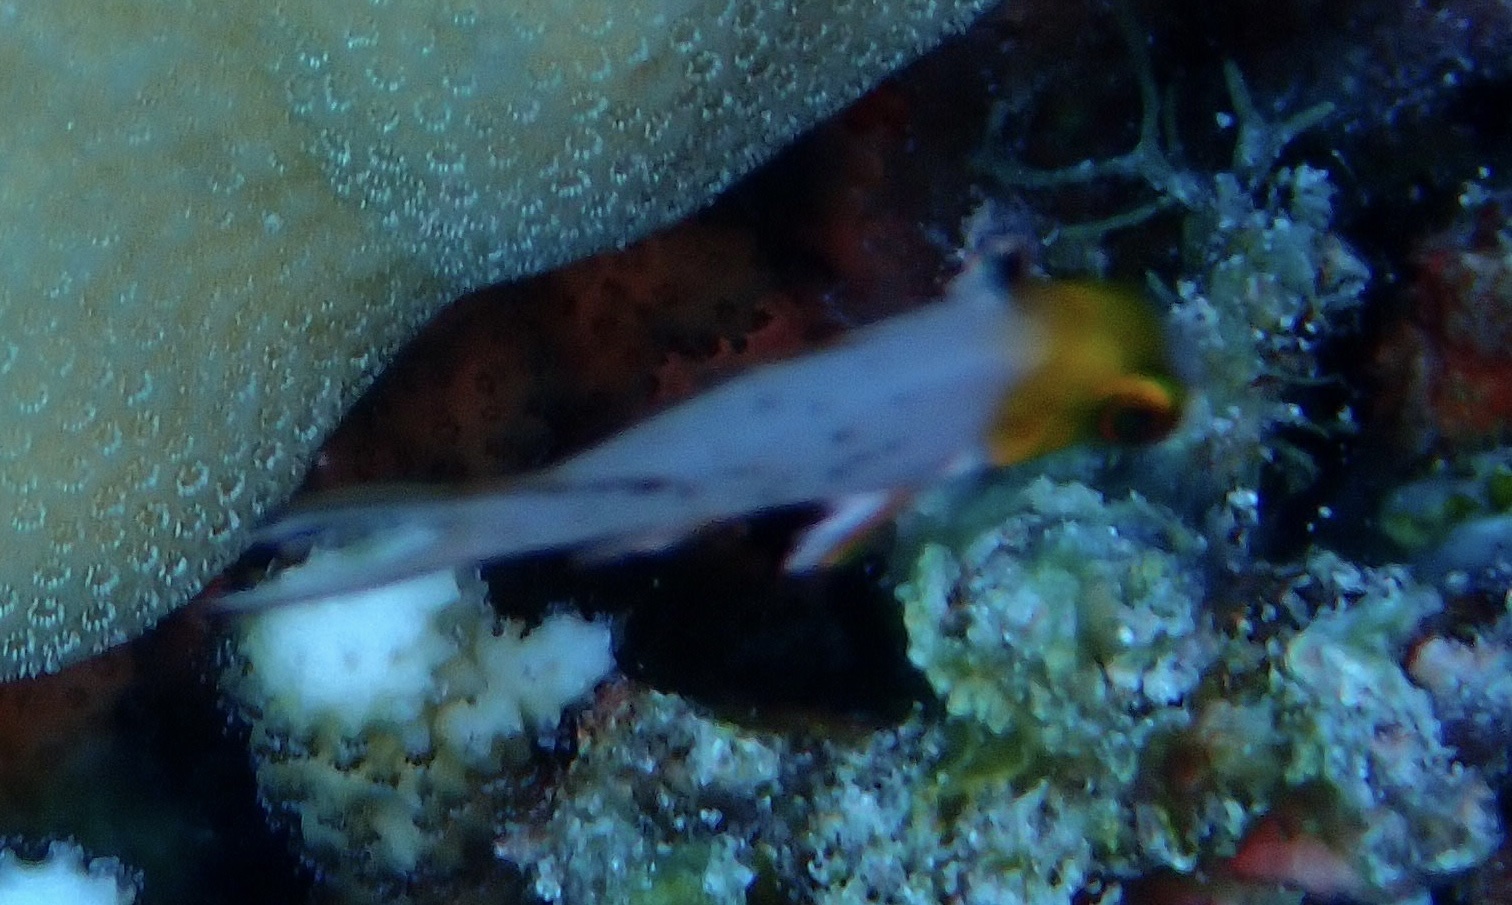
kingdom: Animalia
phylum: Chordata
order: Perciformes
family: Labridae
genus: Bodianus
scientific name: Bodianus anthioides
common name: Lyretail hogfish
